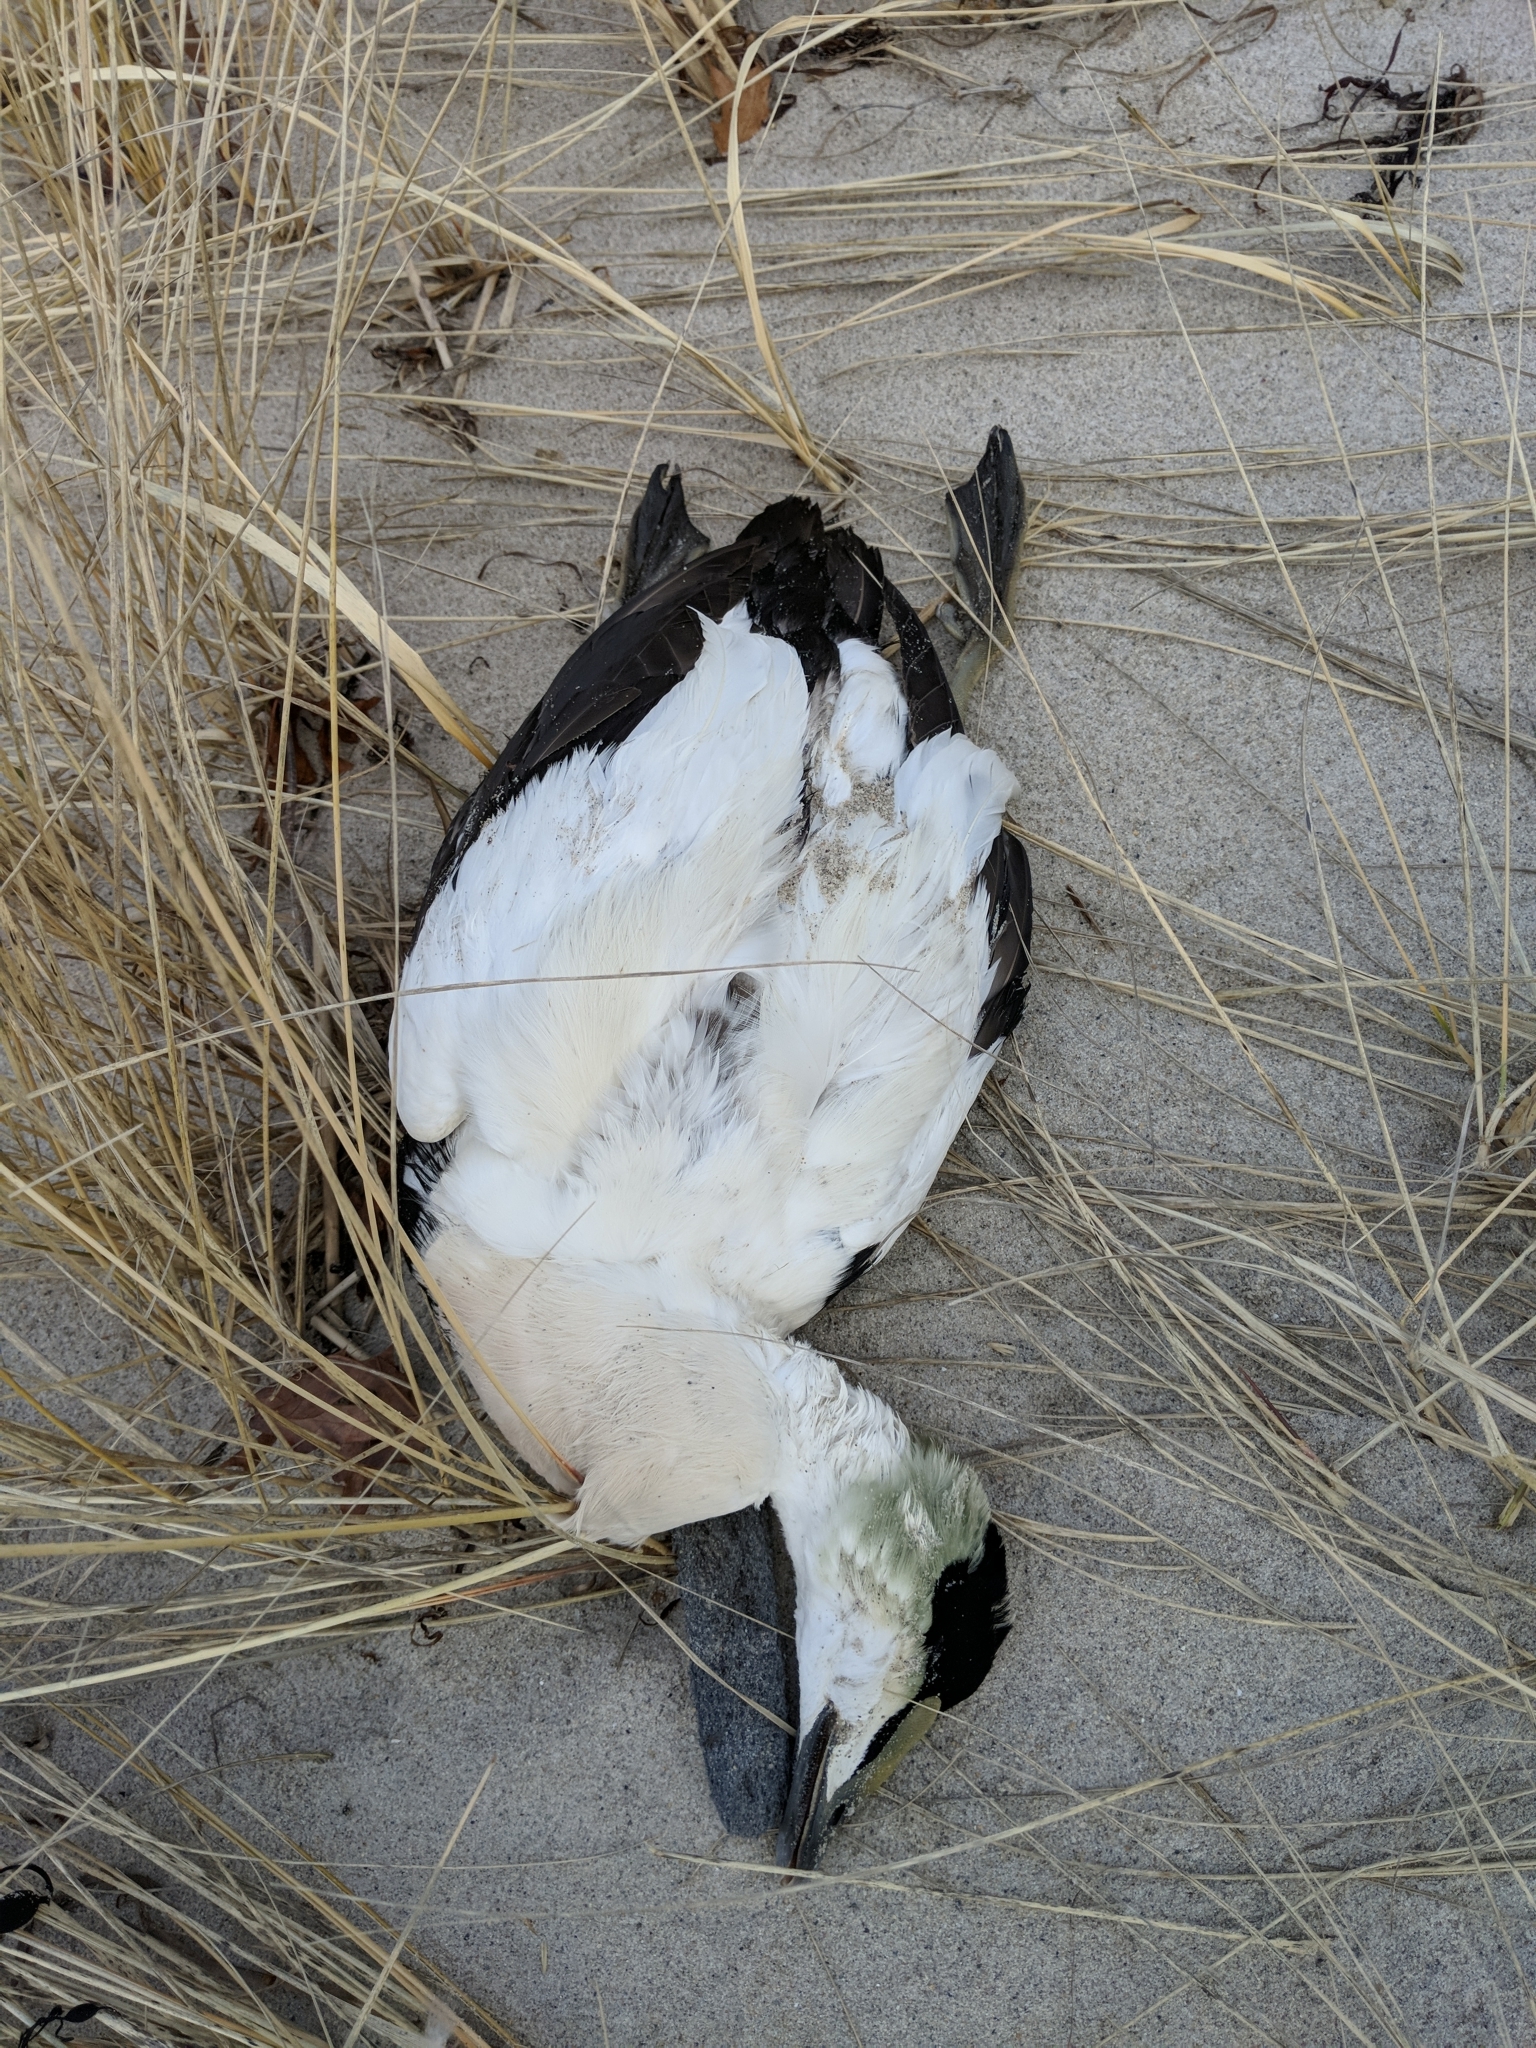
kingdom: Animalia
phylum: Chordata
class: Aves
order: Anseriformes
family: Anatidae
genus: Somateria
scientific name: Somateria mollissima
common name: Common eider
